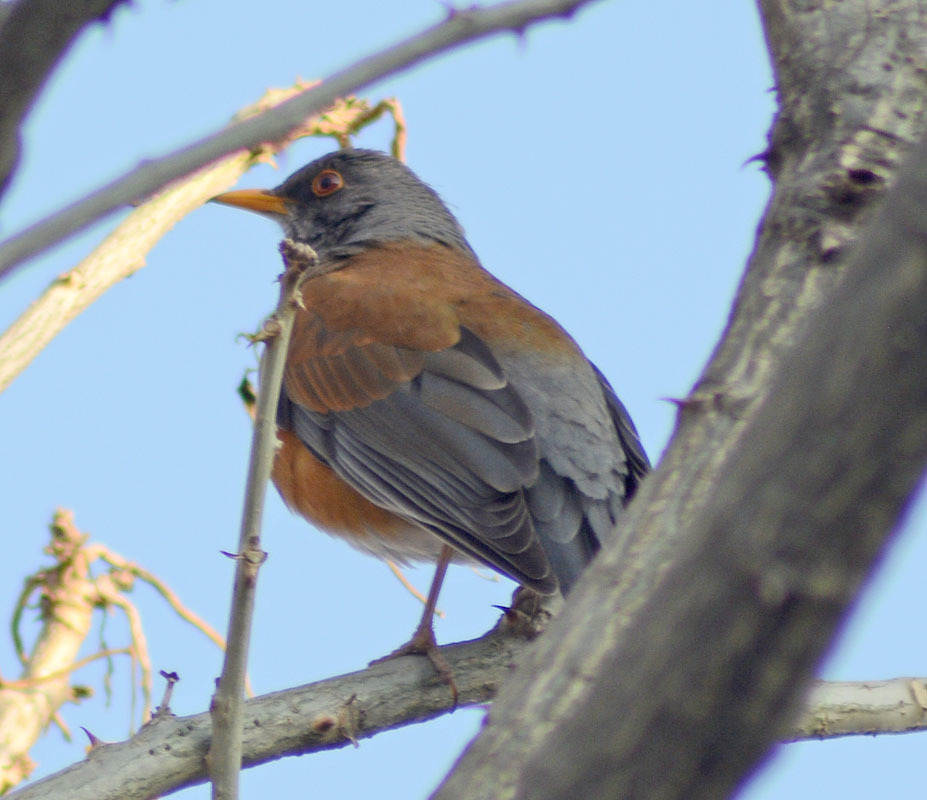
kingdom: Animalia
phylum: Chordata
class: Aves
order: Passeriformes
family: Turdidae
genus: Turdus
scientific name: Turdus rufopalliatus
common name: Rufous-backed robin
